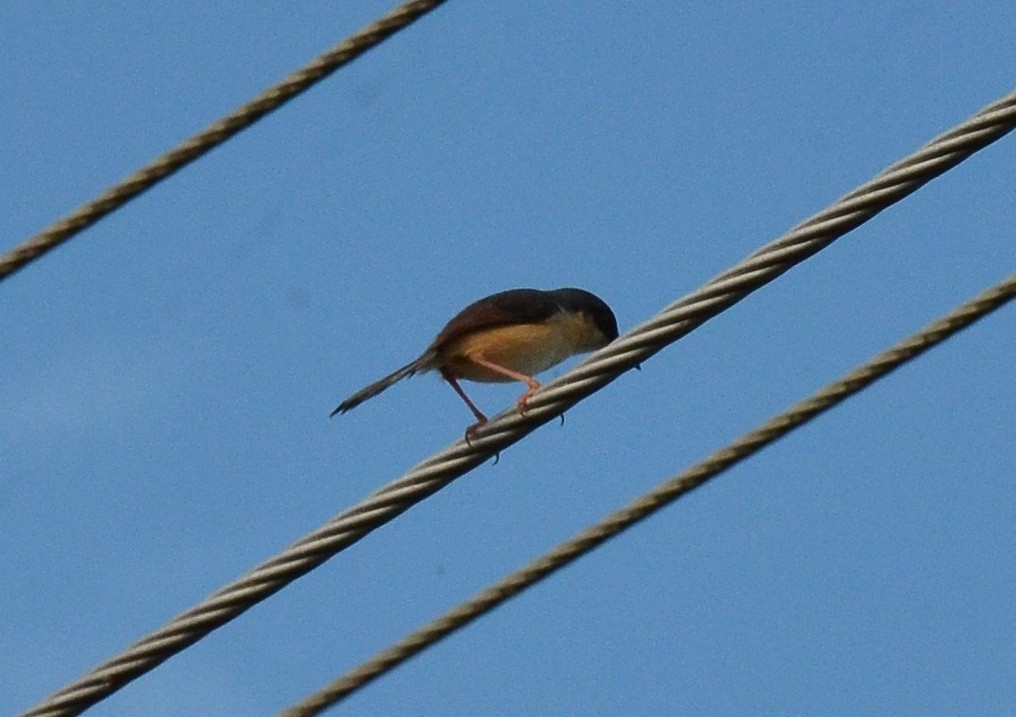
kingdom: Animalia
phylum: Chordata
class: Aves
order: Passeriformes
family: Cisticolidae
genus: Prinia
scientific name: Prinia socialis
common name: Ashy prinia
